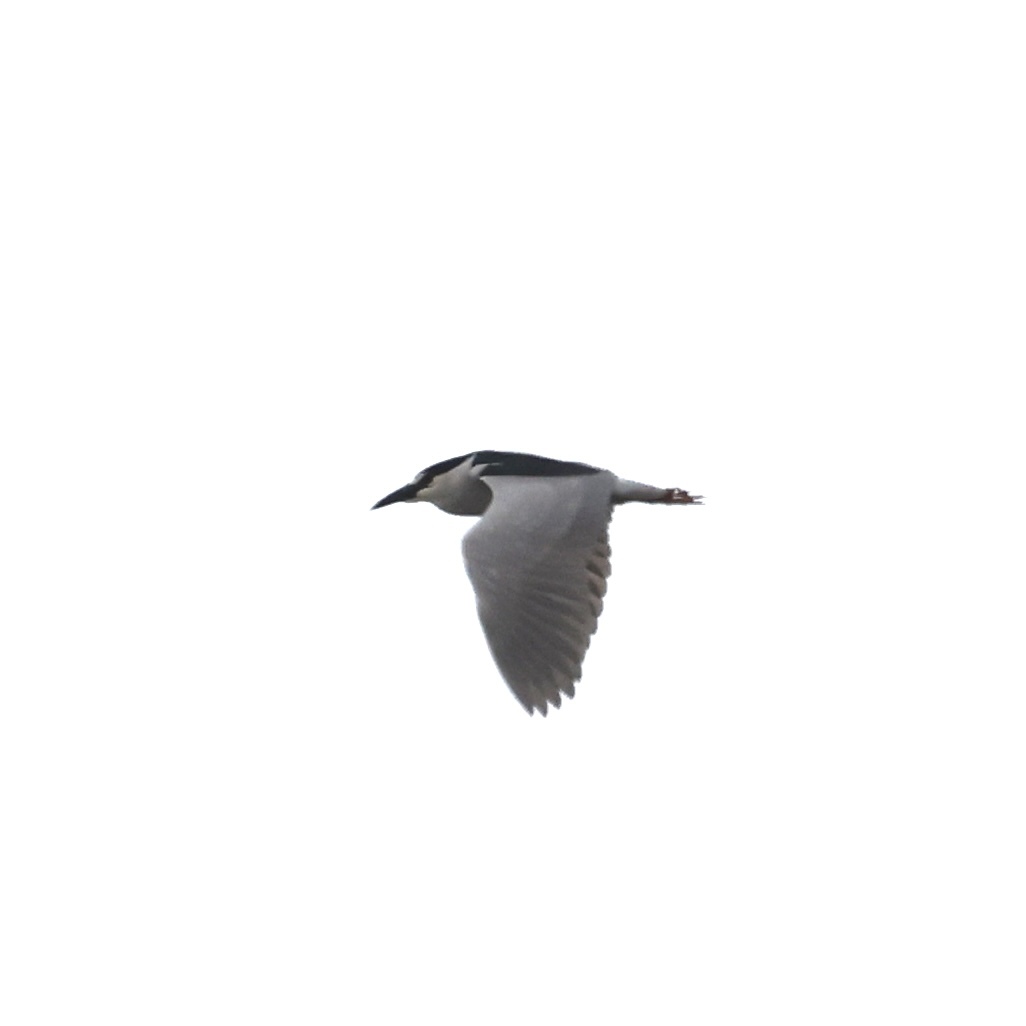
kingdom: Animalia
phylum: Chordata
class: Aves
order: Pelecaniformes
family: Ardeidae
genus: Nycticorax
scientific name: Nycticorax nycticorax
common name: Black-crowned night heron
